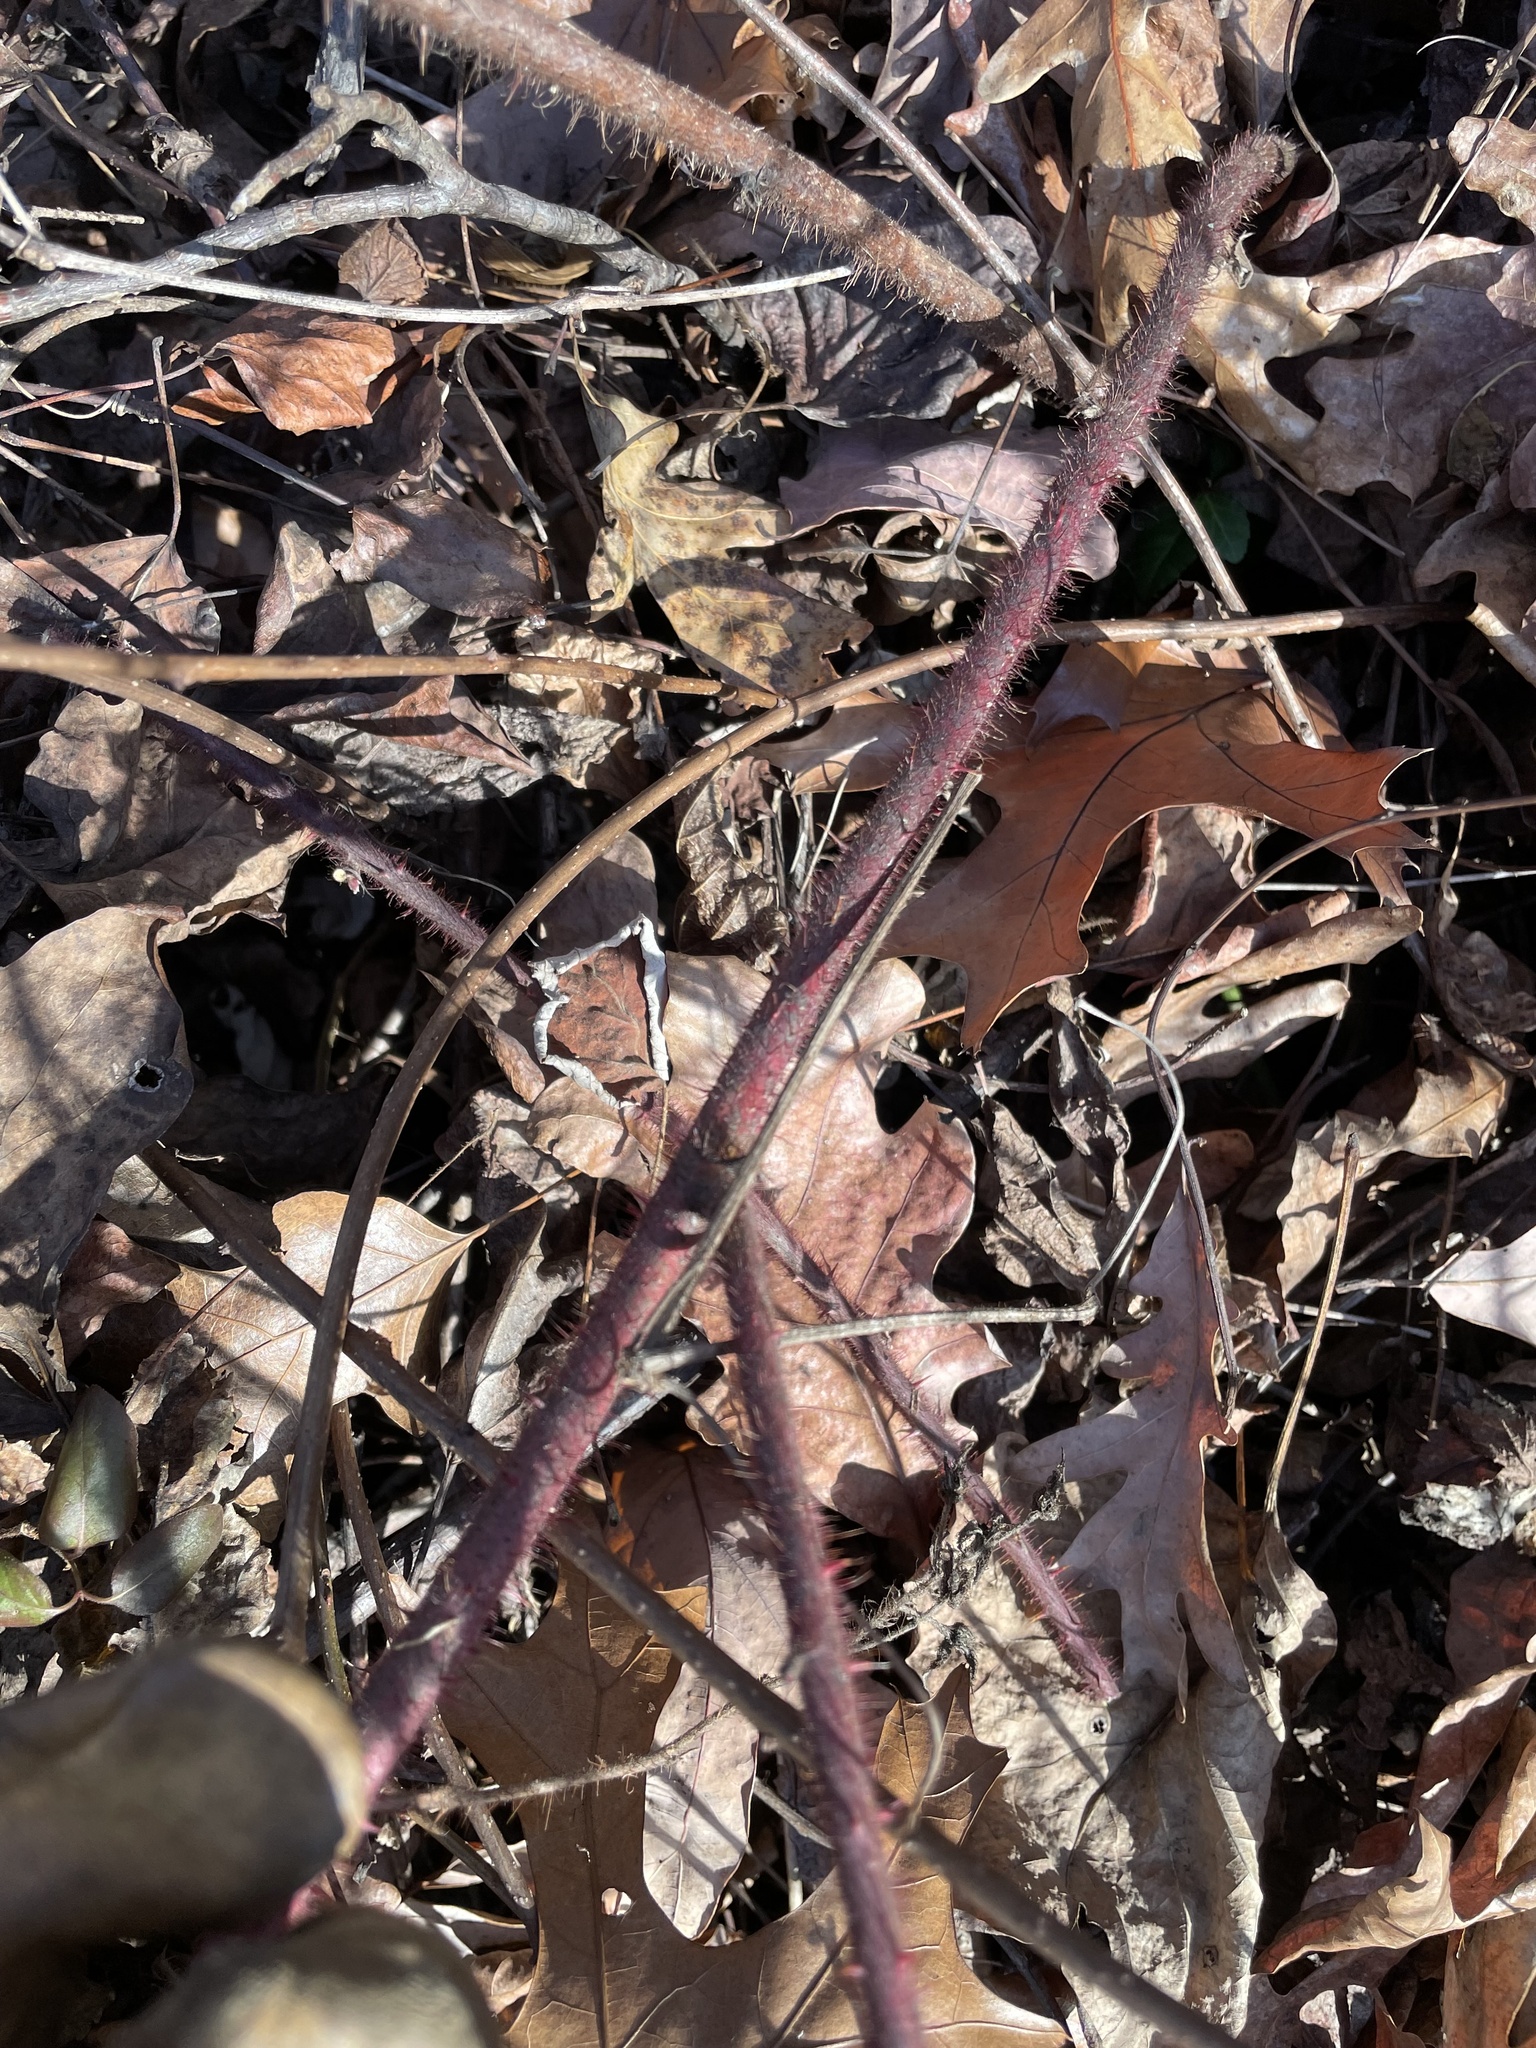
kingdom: Plantae
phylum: Tracheophyta
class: Magnoliopsida
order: Rosales
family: Rosaceae
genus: Rubus
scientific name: Rubus phoenicolasius
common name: Japanese wineberry
